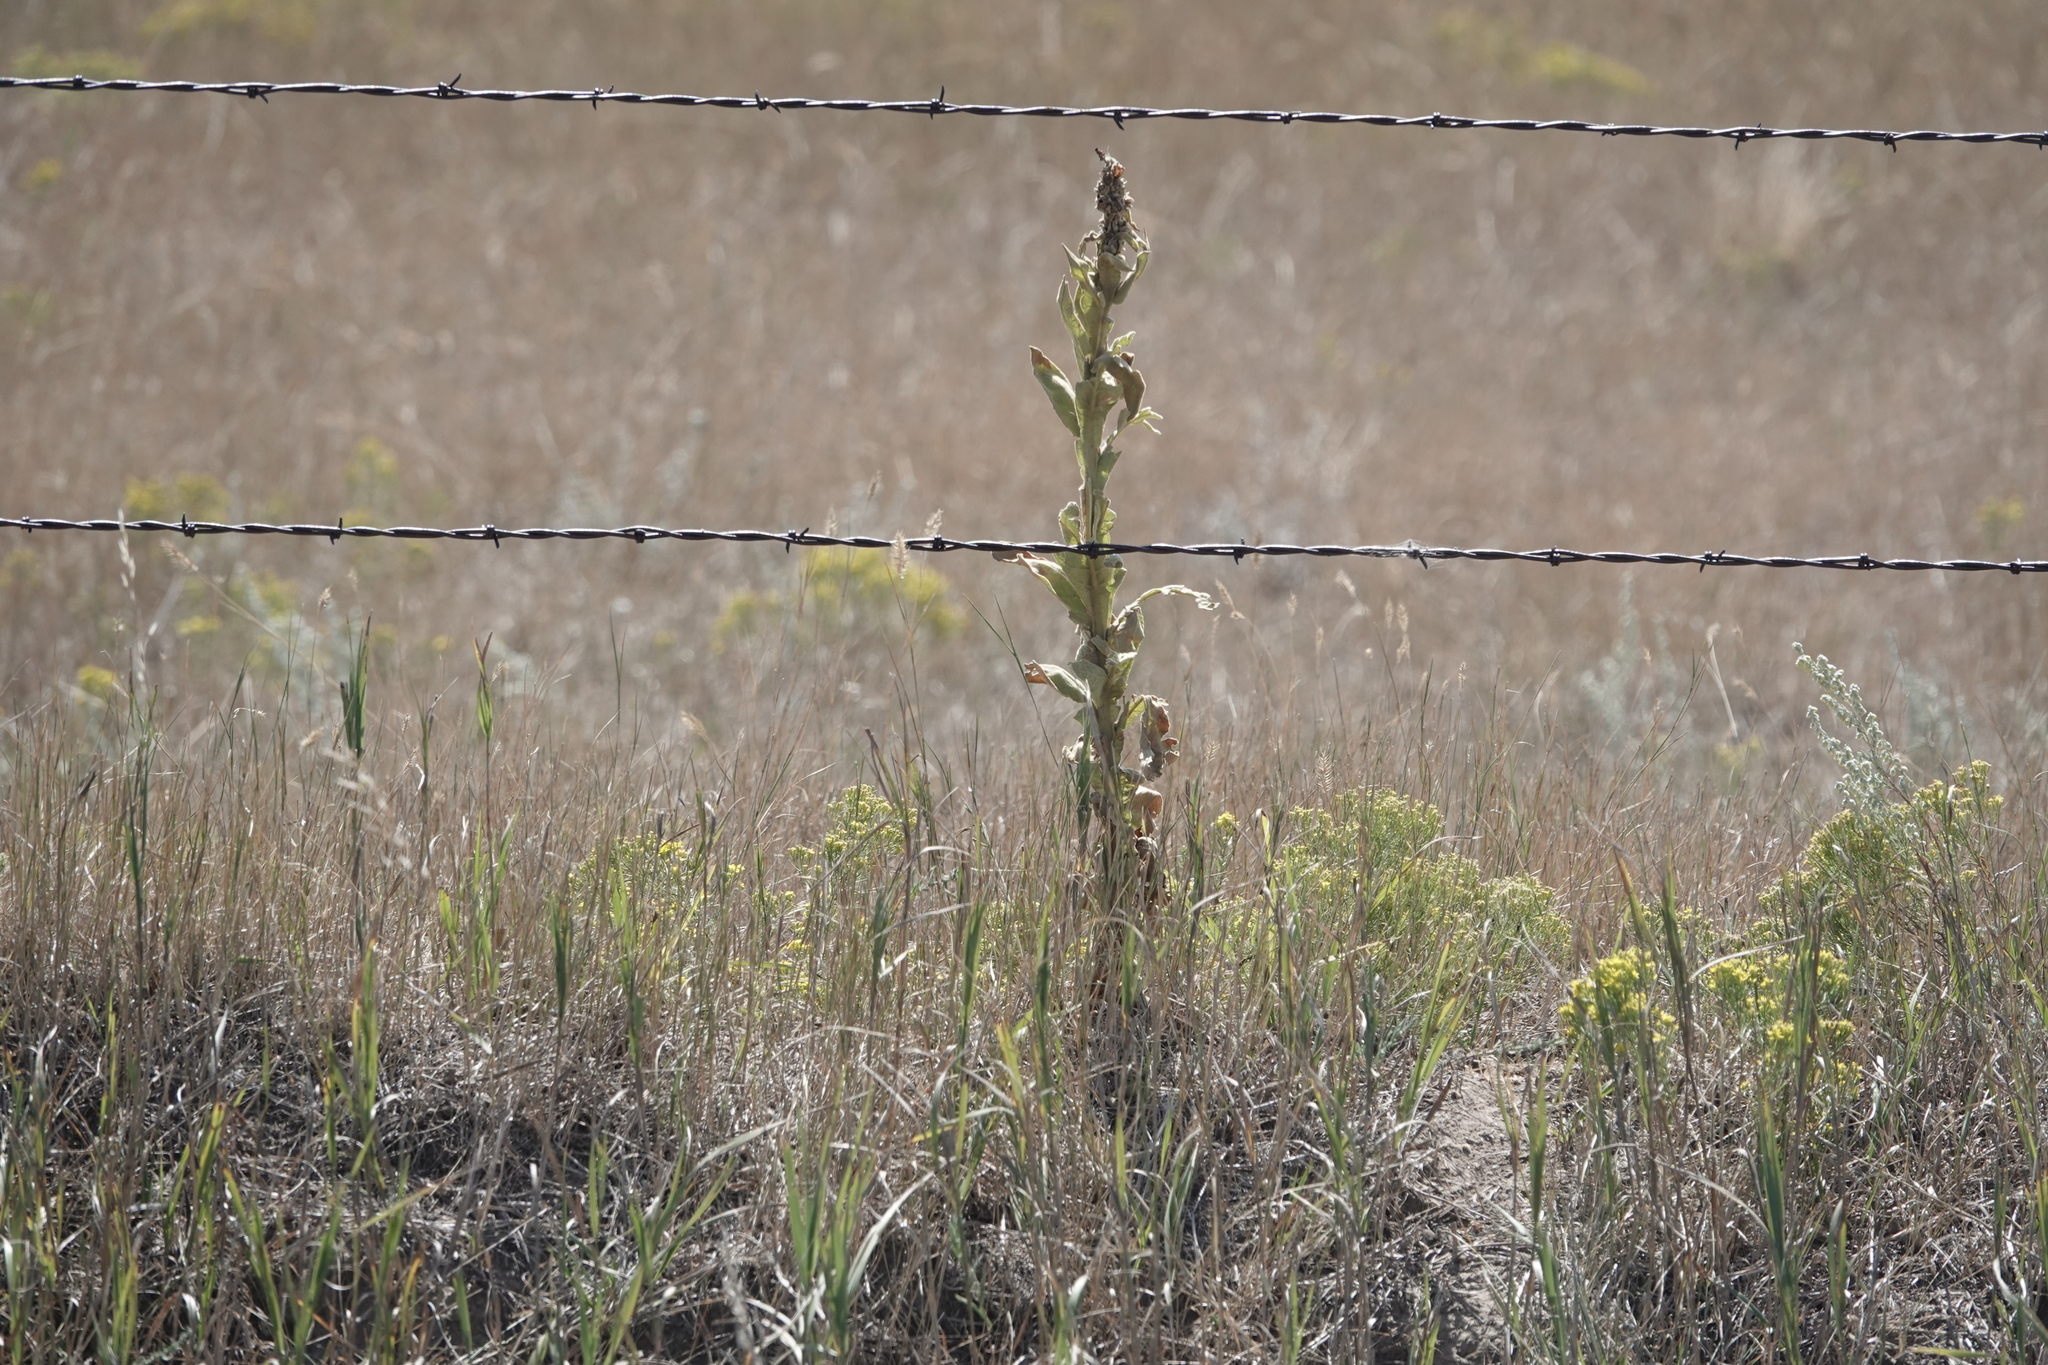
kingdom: Plantae
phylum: Tracheophyta
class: Magnoliopsida
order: Lamiales
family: Scrophulariaceae
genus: Verbascum
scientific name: Verbascum thapsus
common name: Common mullein
